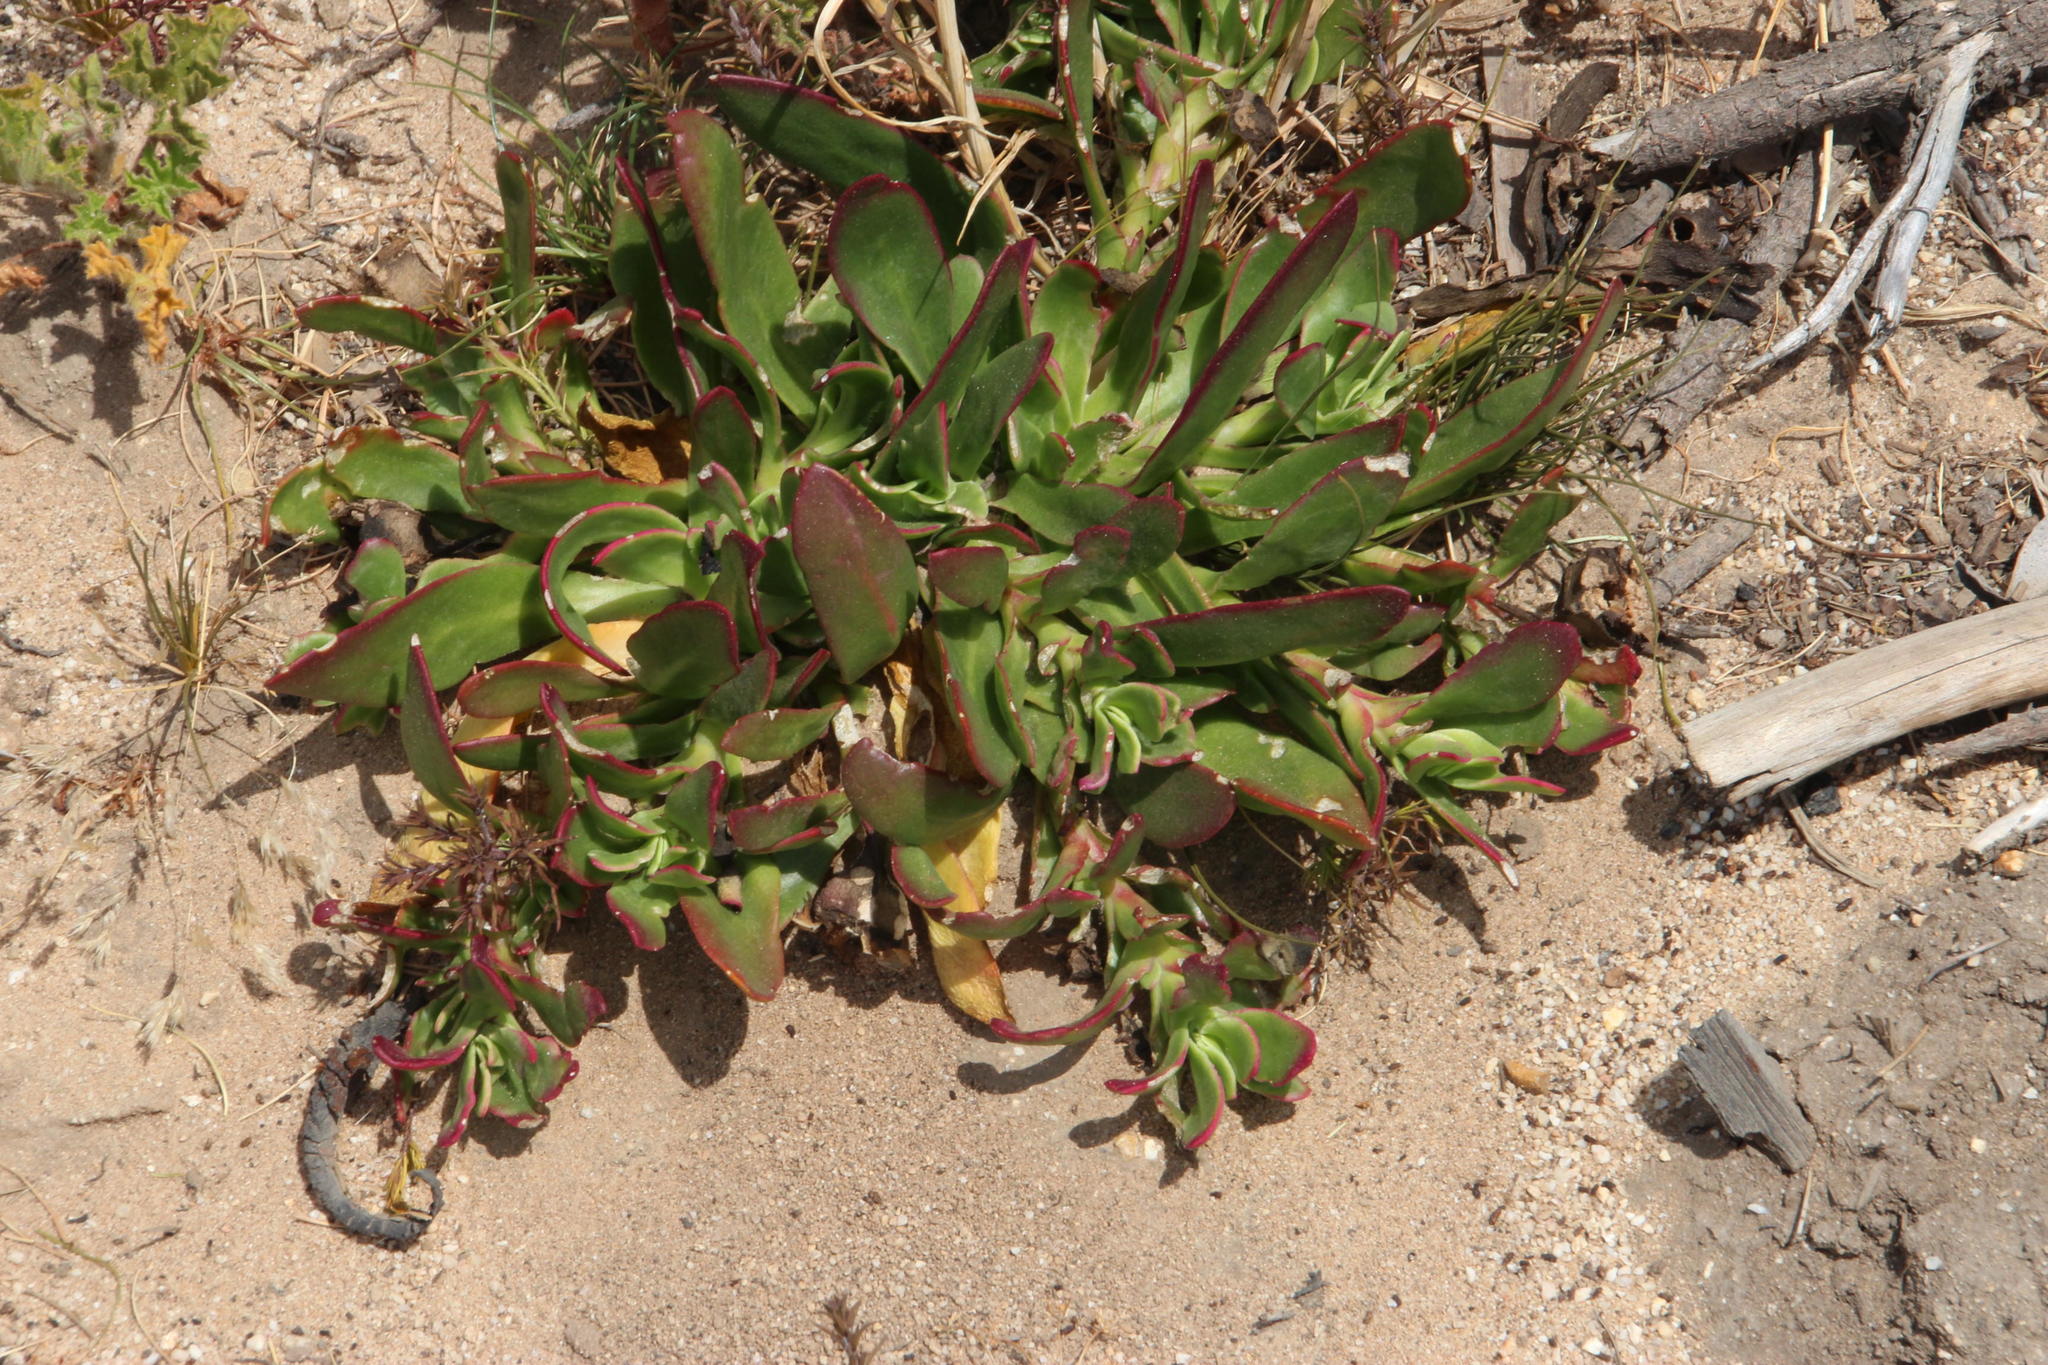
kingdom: Plantae
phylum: Tracheophyta
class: Magnoliopsida
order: Caryophyllales
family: Aizoaceae
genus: Skiatophytum
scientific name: Skiatophytum tripolium
